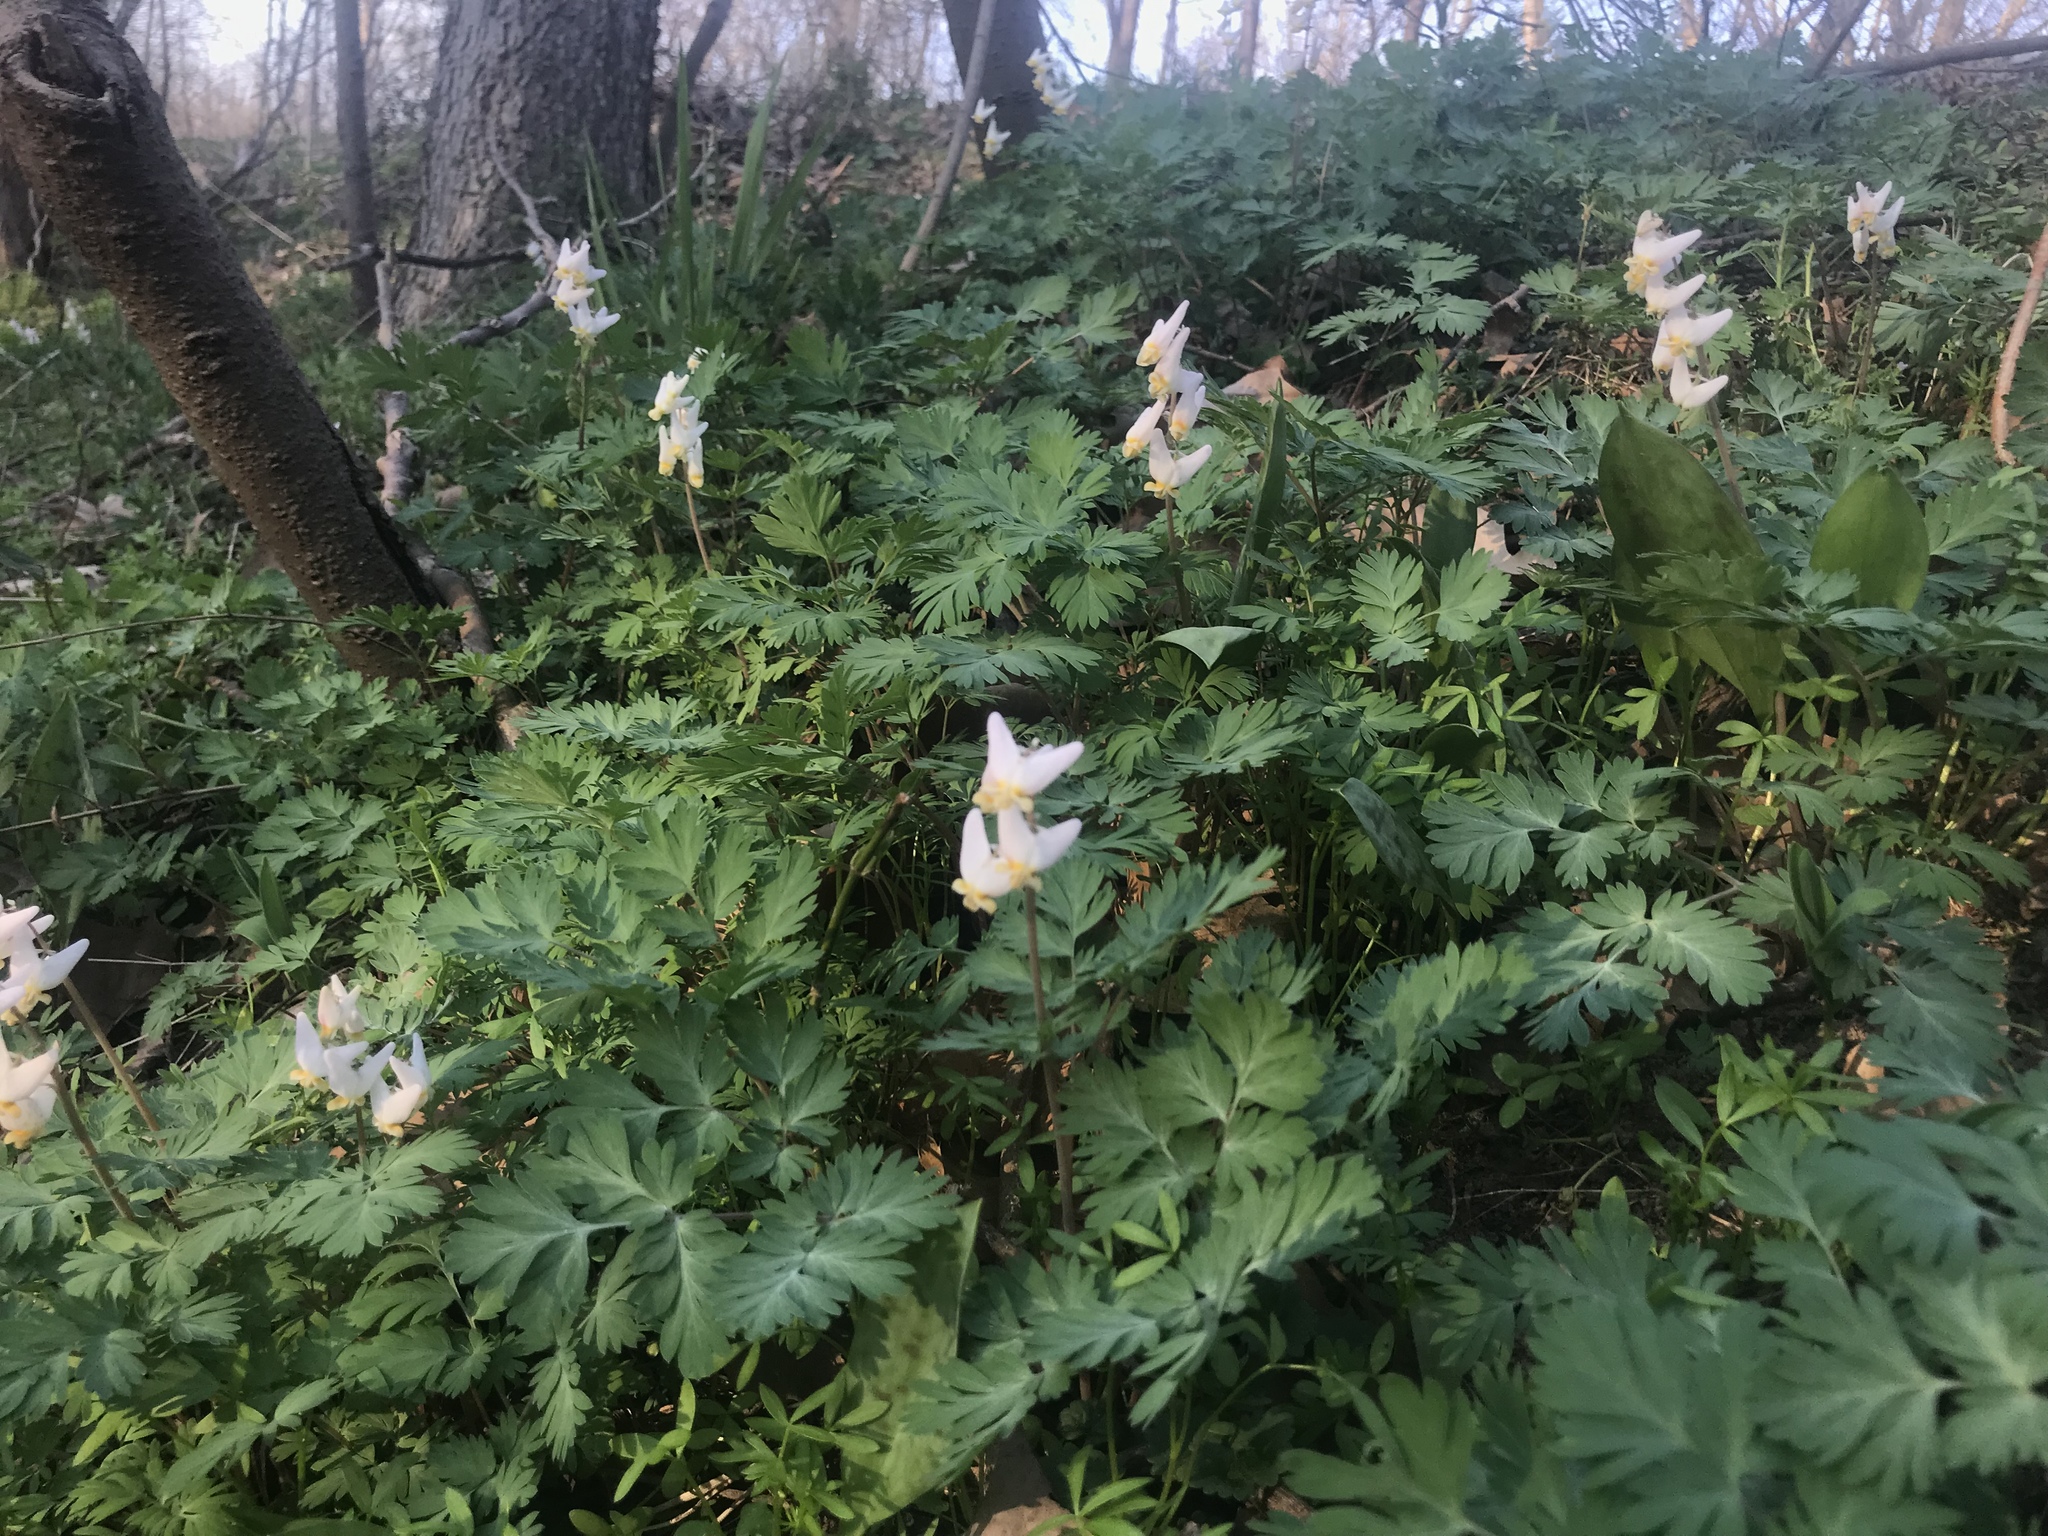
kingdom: Plantae
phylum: Tracheophyta
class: Magnoliopsida
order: Ranunculales
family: Papaveraceae
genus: Dicentra
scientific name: Dicentra cucullaria
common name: Dutchman's breeches
